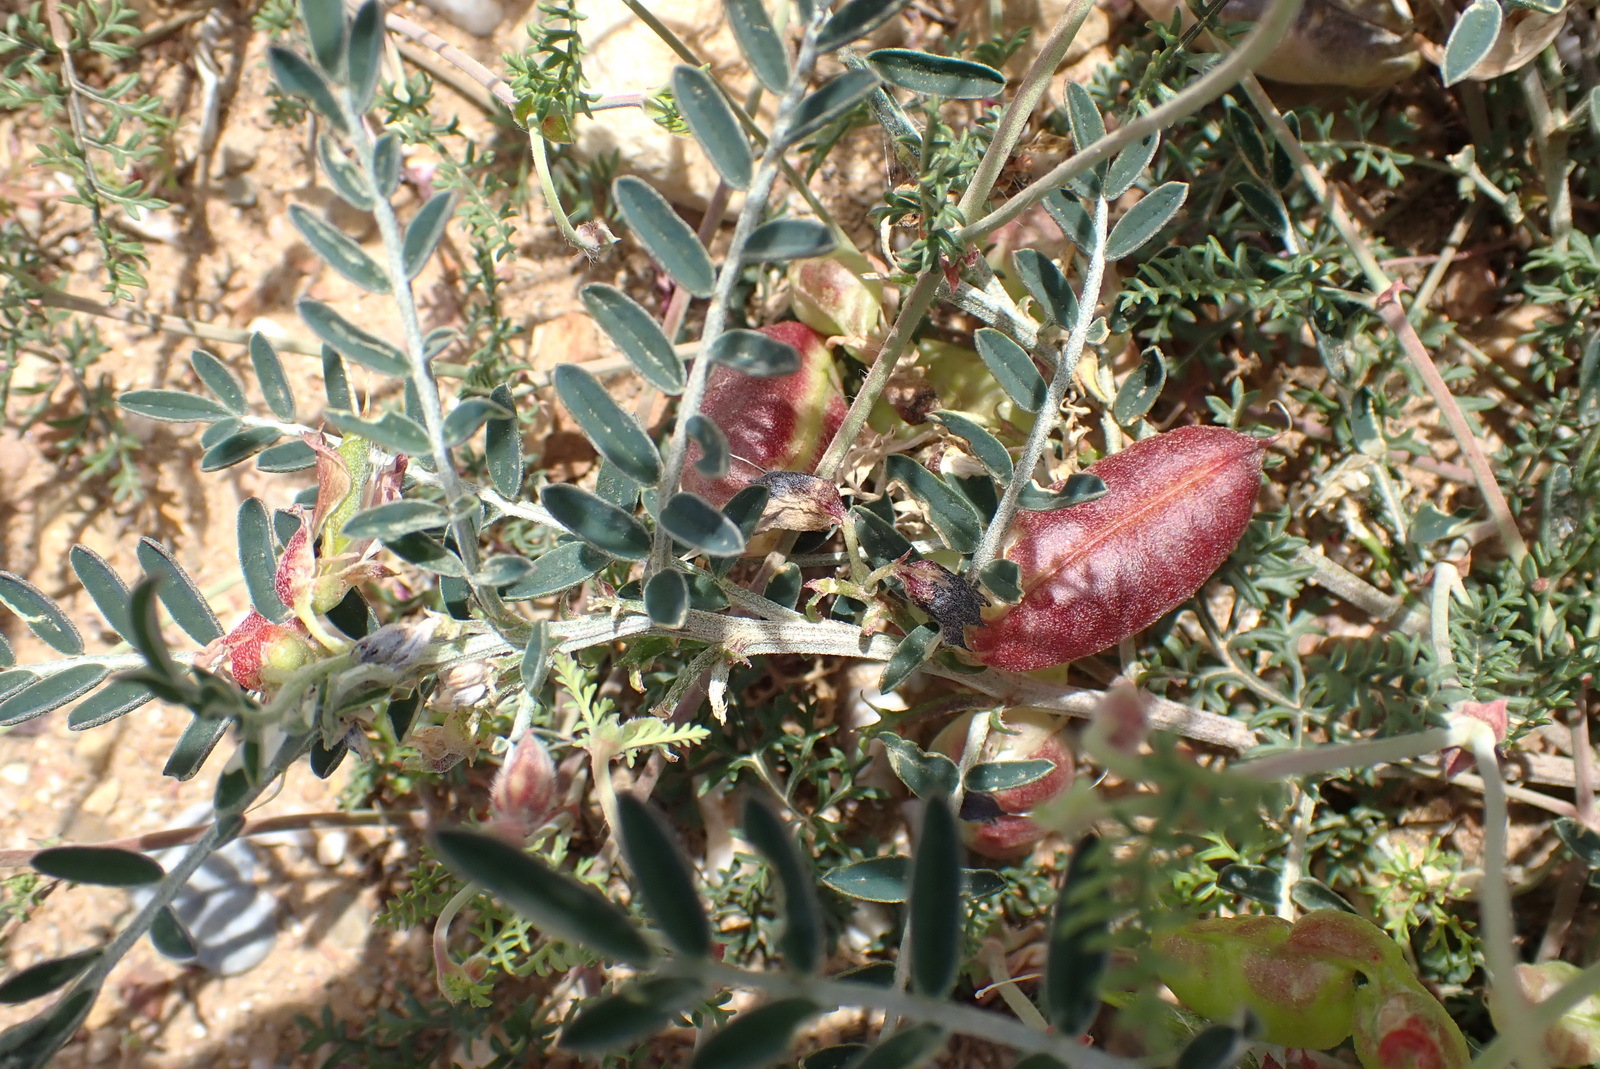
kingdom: Plantae
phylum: Tracheophyta
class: Magnoliopsida
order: Fabales
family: Fabaceae
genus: Lessertia
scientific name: Lessertia frutescens
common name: Balloon-pea
